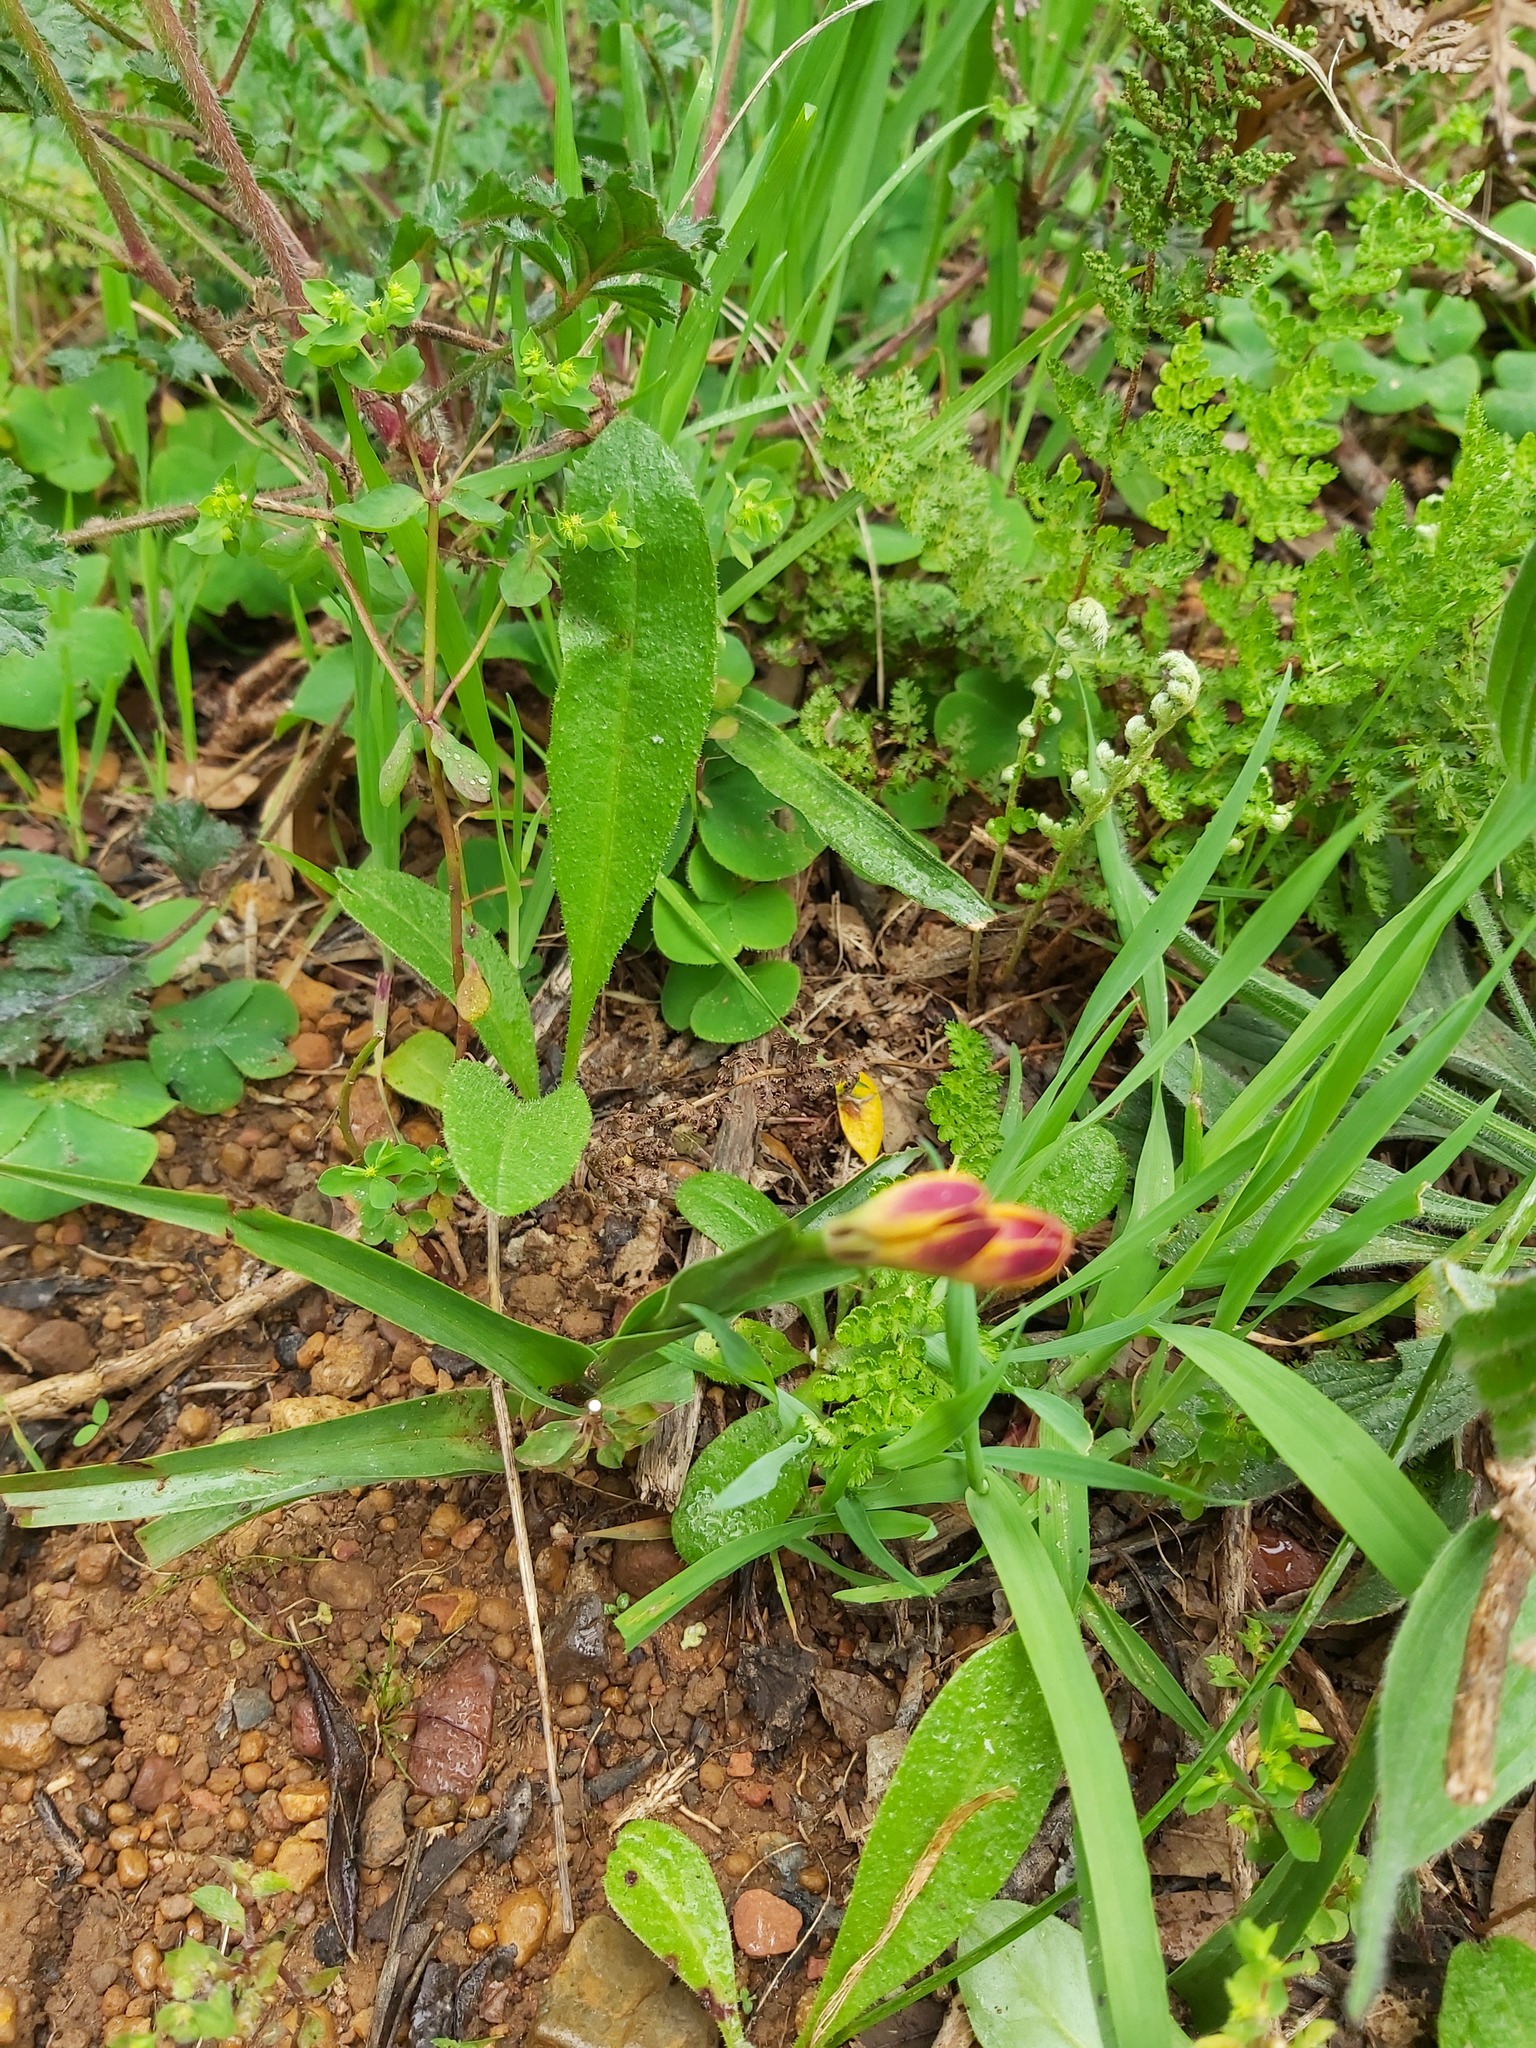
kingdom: Plantae
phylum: Tracheophyta
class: Liliopsida
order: Liliales
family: Colchicaceae
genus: Baeometra
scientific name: Baeometra uniflora
